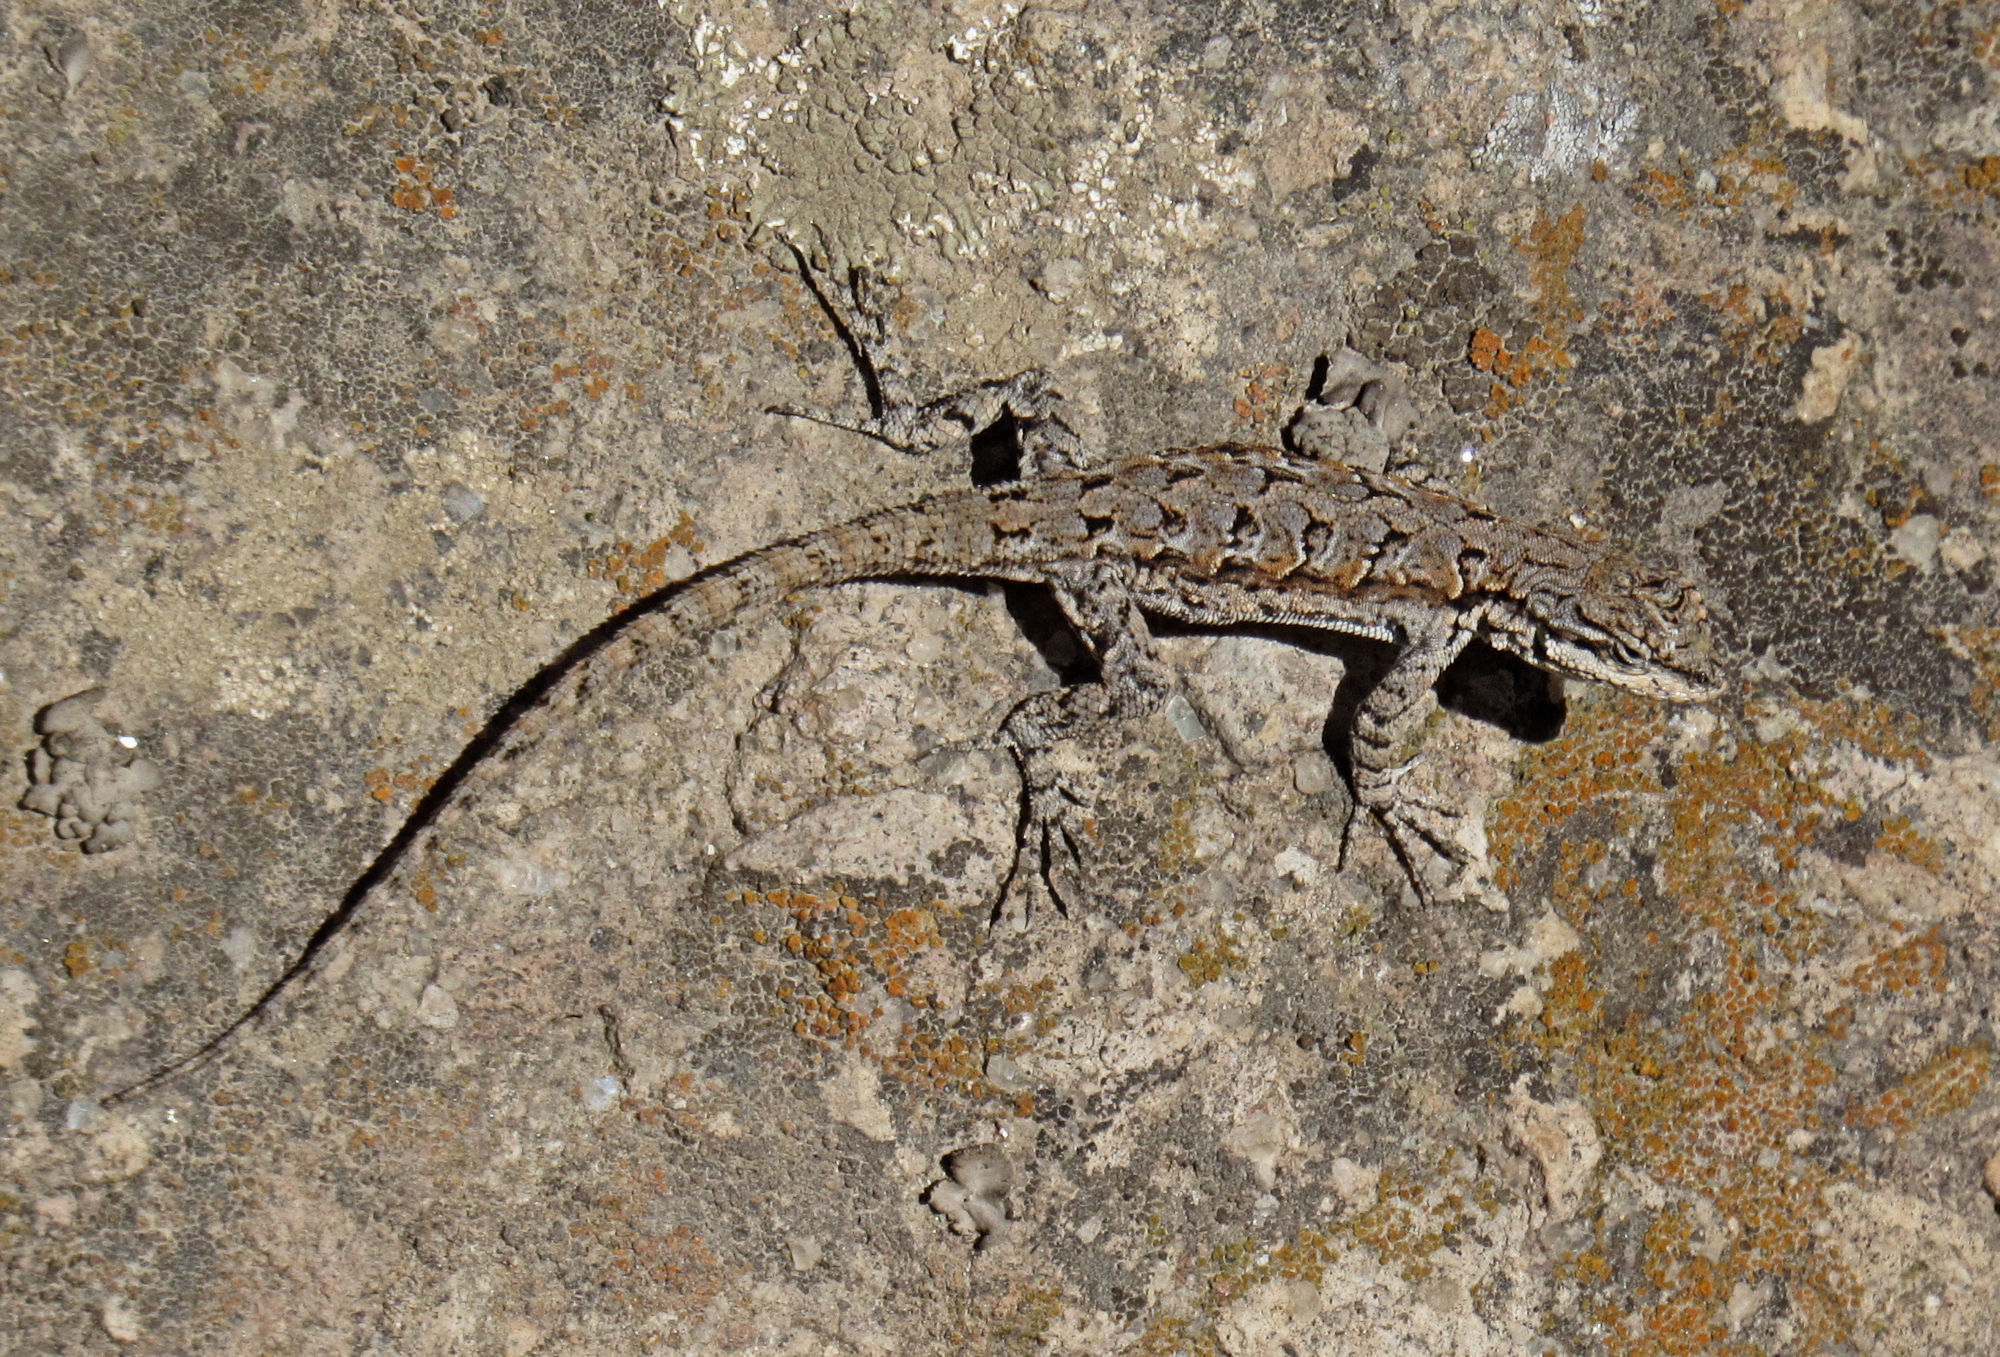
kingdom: Animalia
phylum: Chordata
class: Squamata
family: Phrynosomatidae
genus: Urosaurus
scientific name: Urosaurus ornatus
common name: Ornate tree lizard
